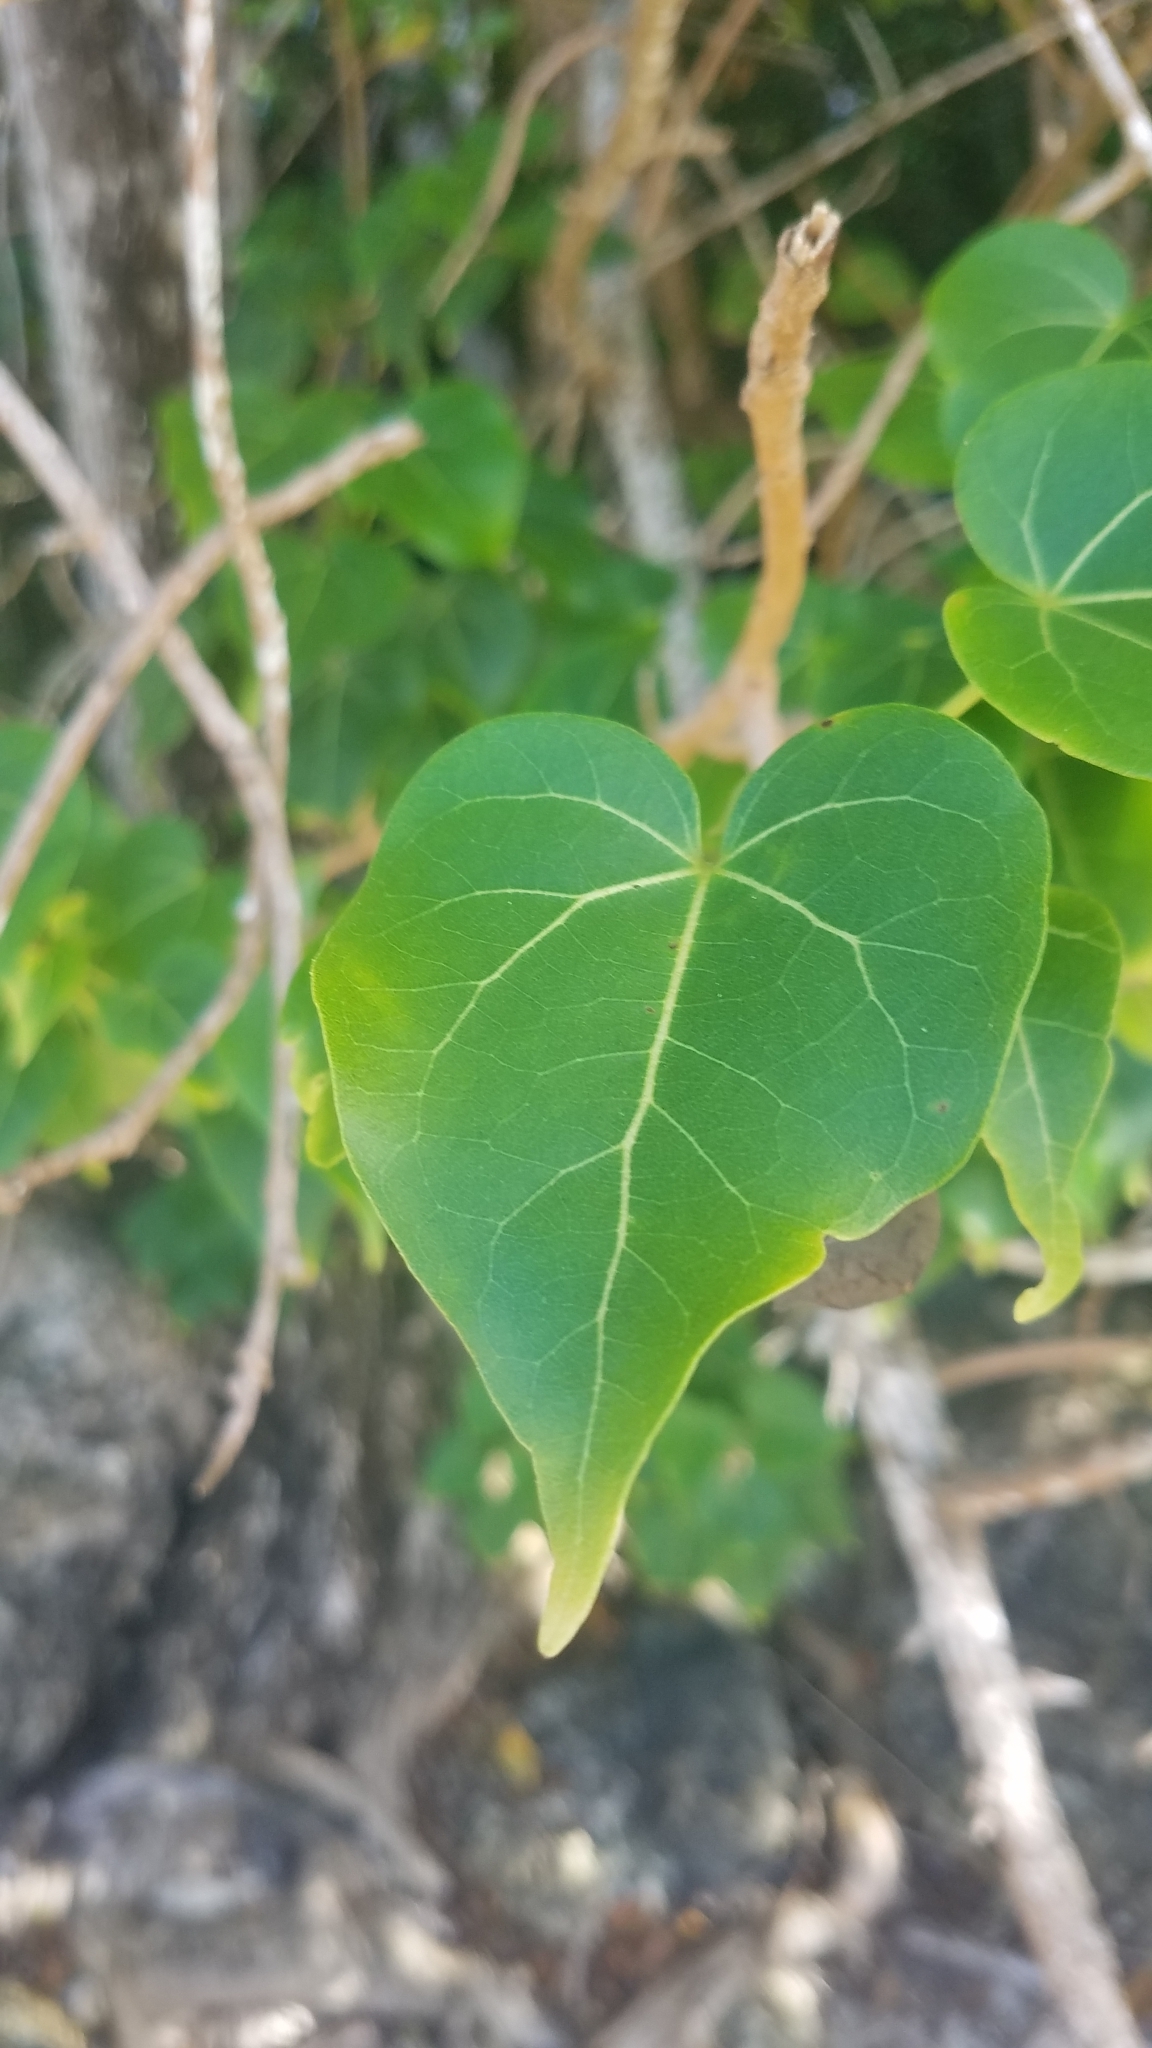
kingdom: Plantae
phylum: Tracheophyta
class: Magnoliopsida
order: Malvales
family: Malvaceae
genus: Thespesia
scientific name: Thespesia populnea
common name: Seaside mahoe
